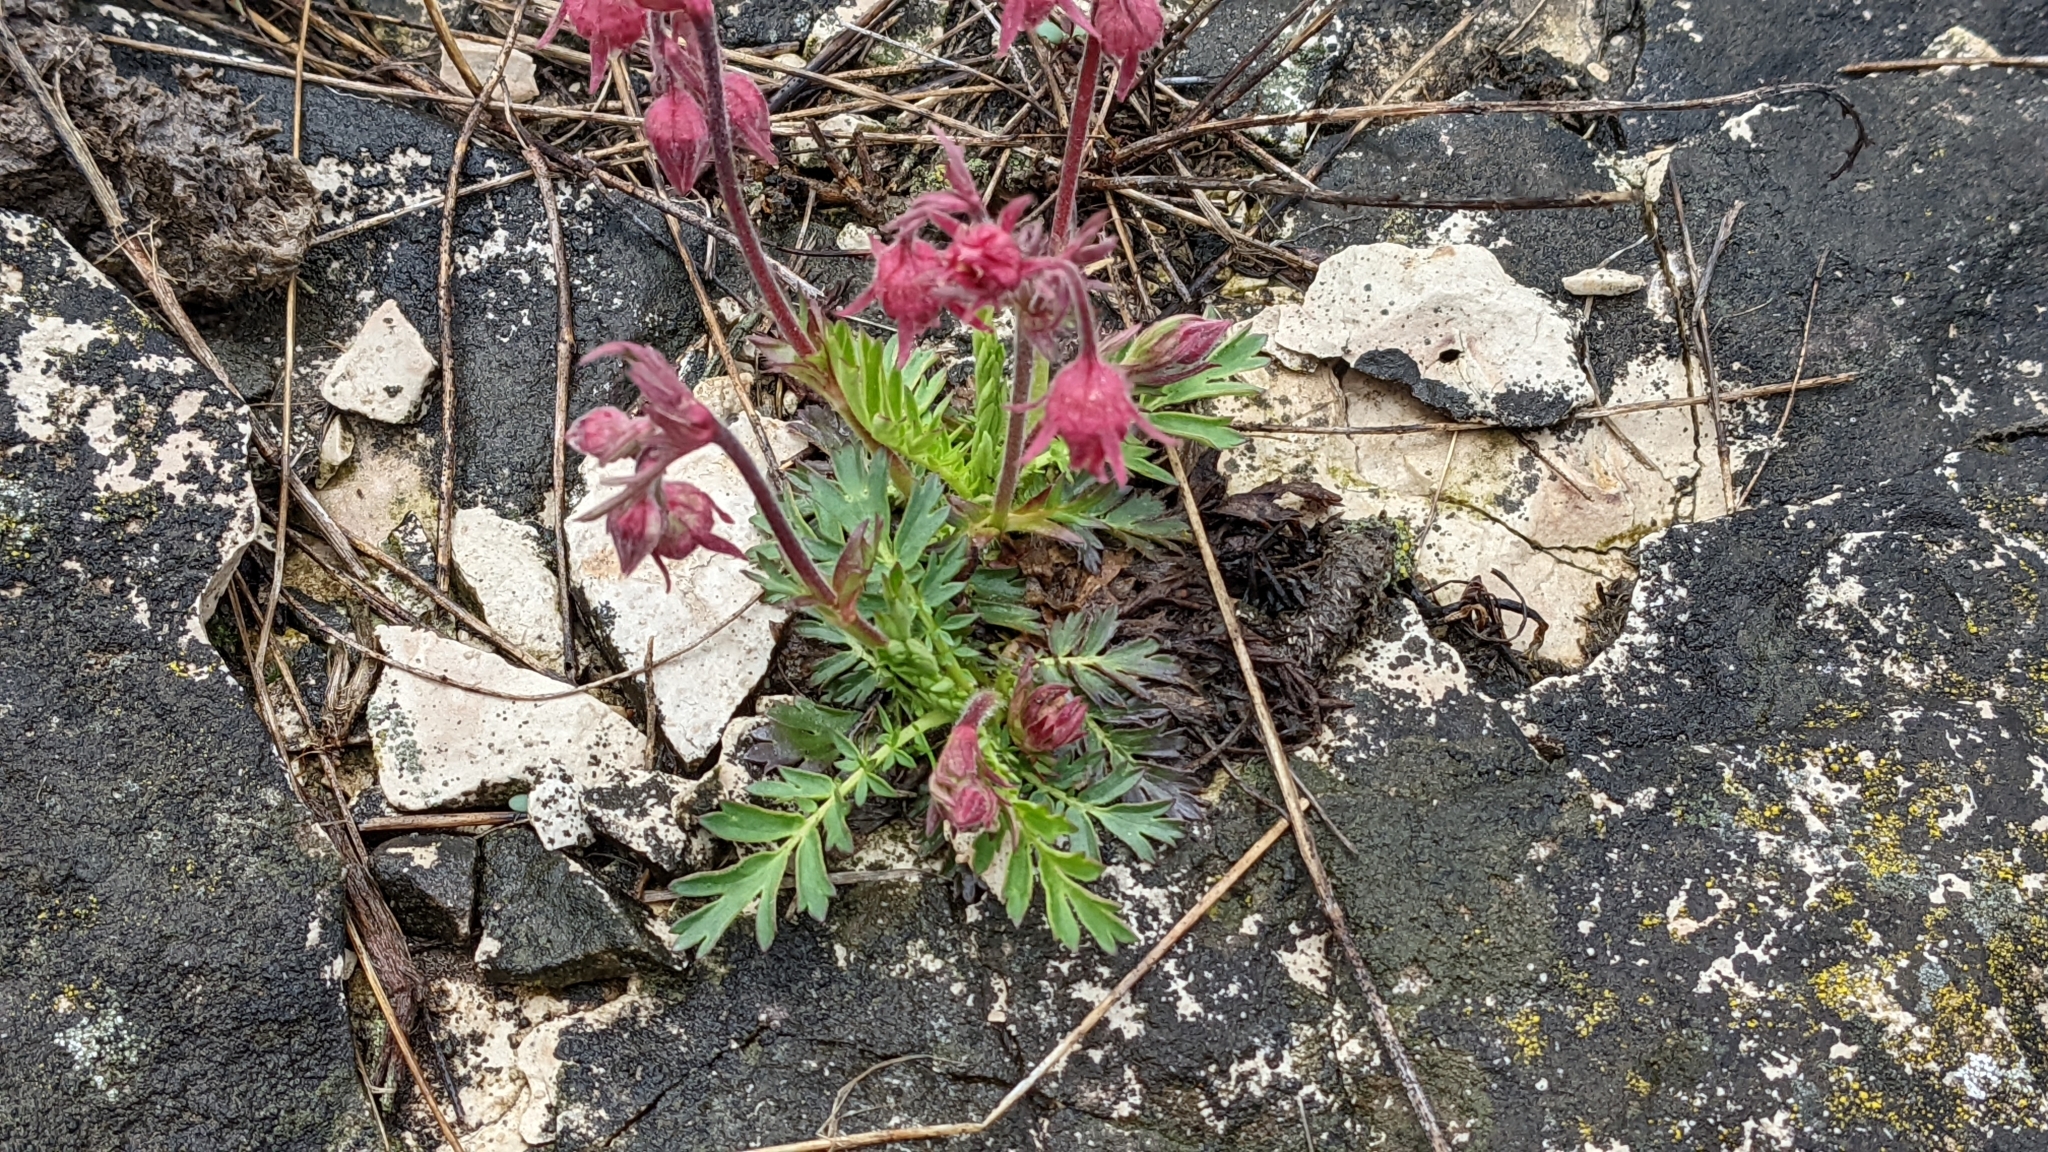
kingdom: Plantae
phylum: Tracheophyta
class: Magnoliopsida
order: Rosales
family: Rosaceae
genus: Geum
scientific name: Geum triflorum
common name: Old man's whiskers
